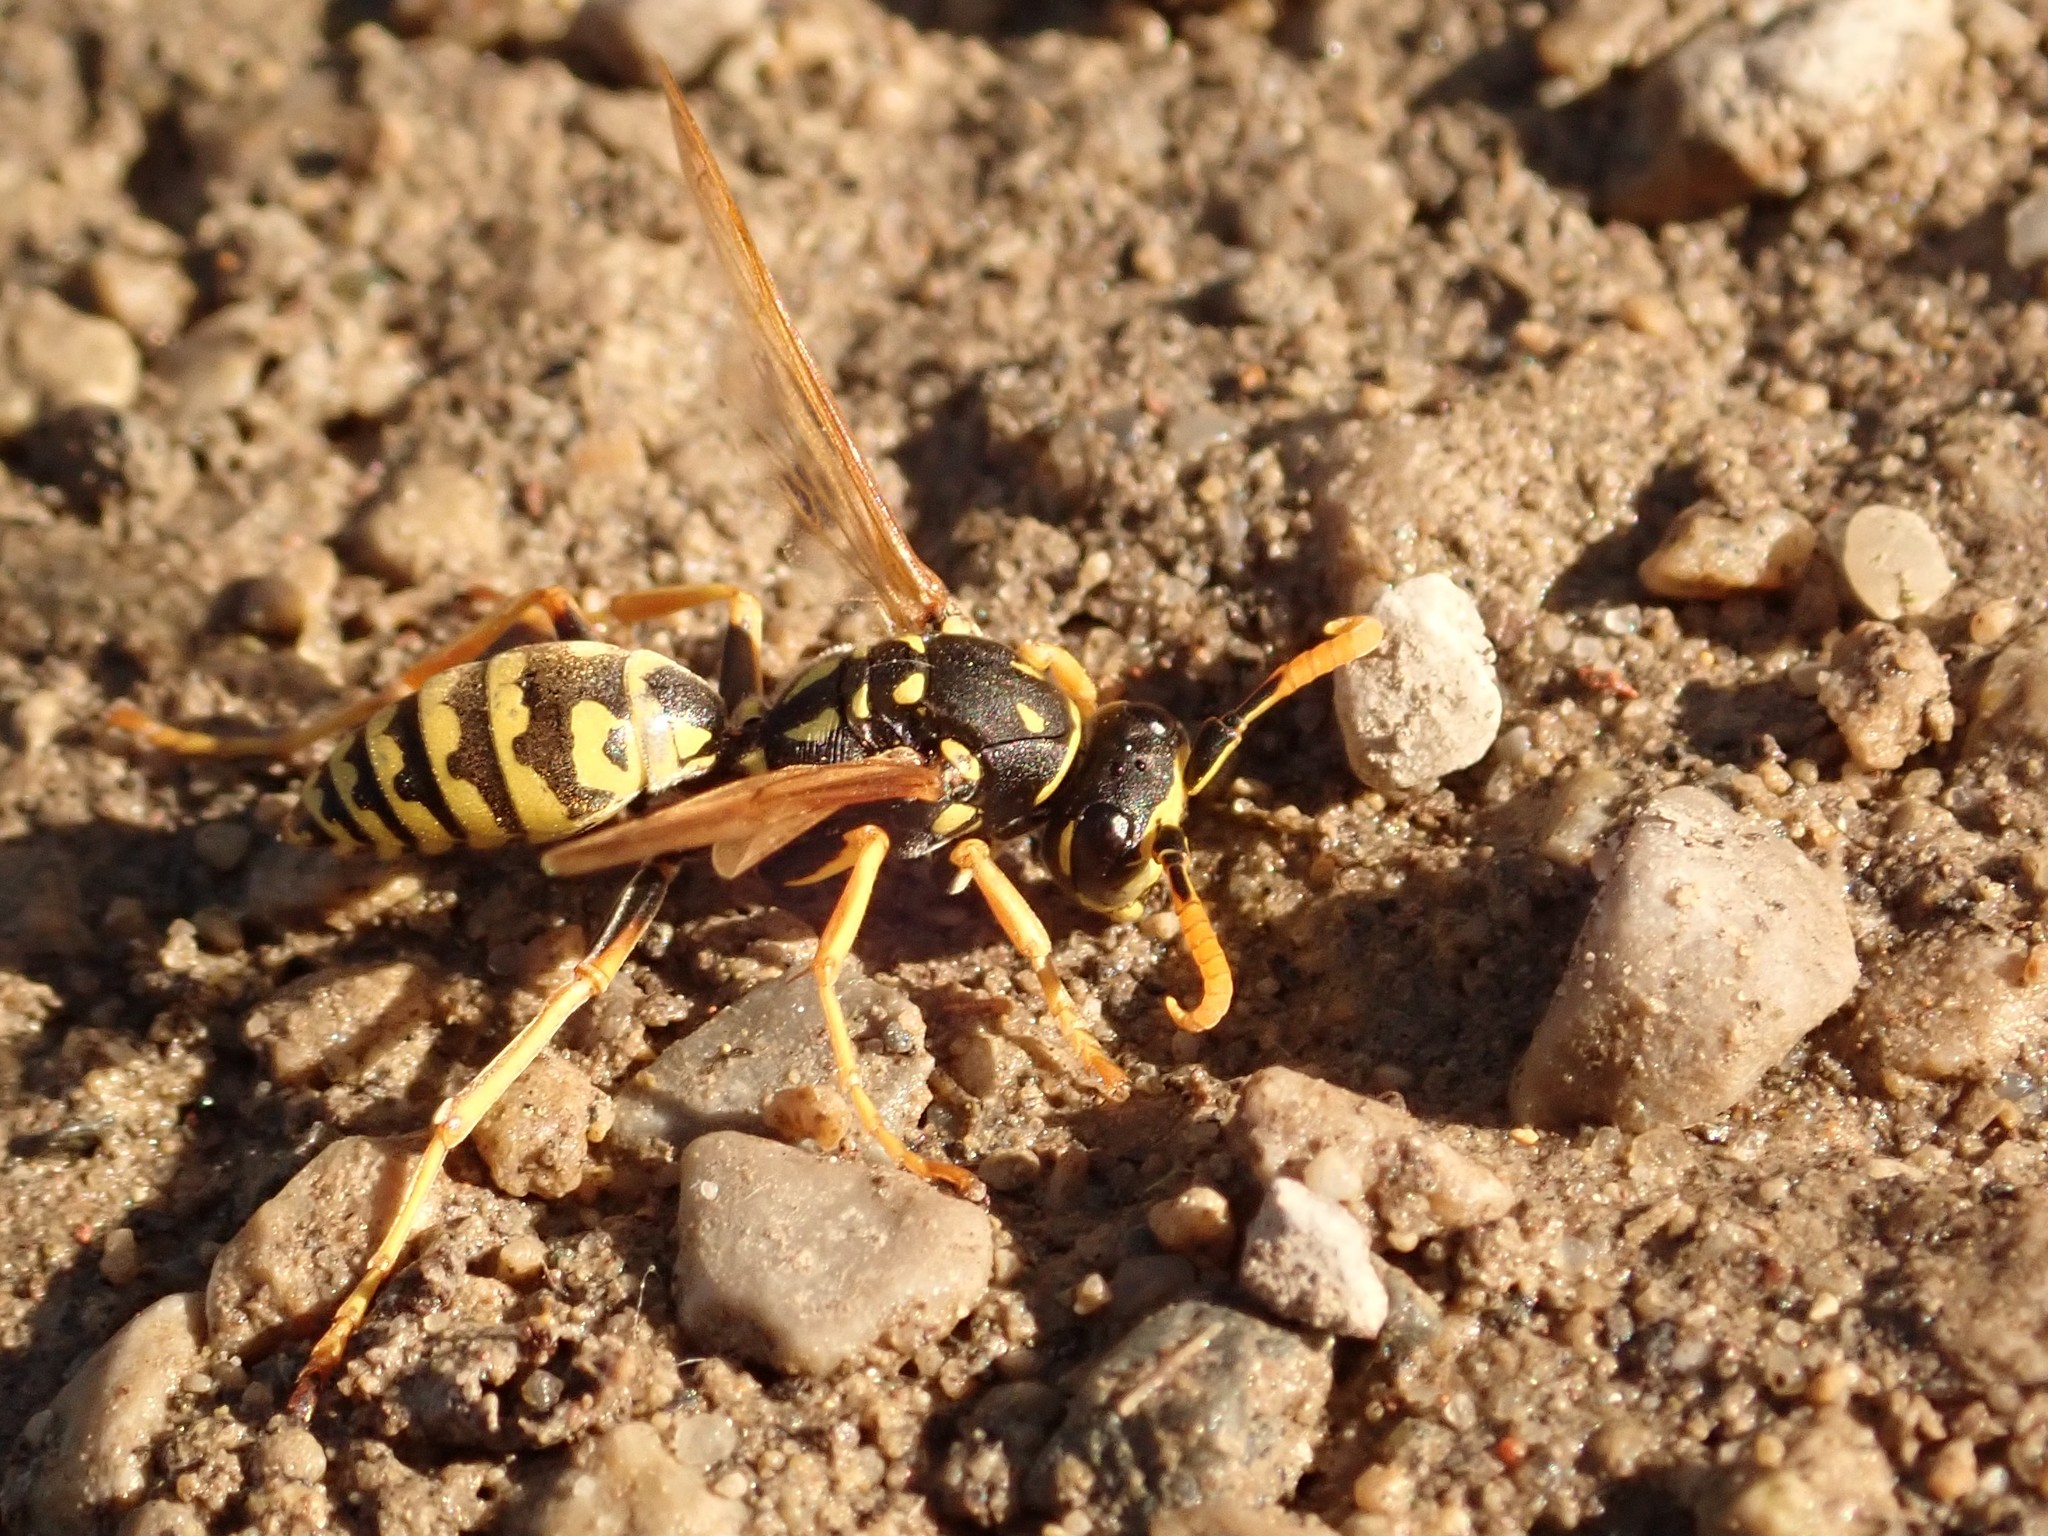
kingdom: Animalia
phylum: Arthropoda
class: Insecta
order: Hymenoptera
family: Eumenidae
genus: Polistes
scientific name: Polistes dominula
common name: Paper wasp
